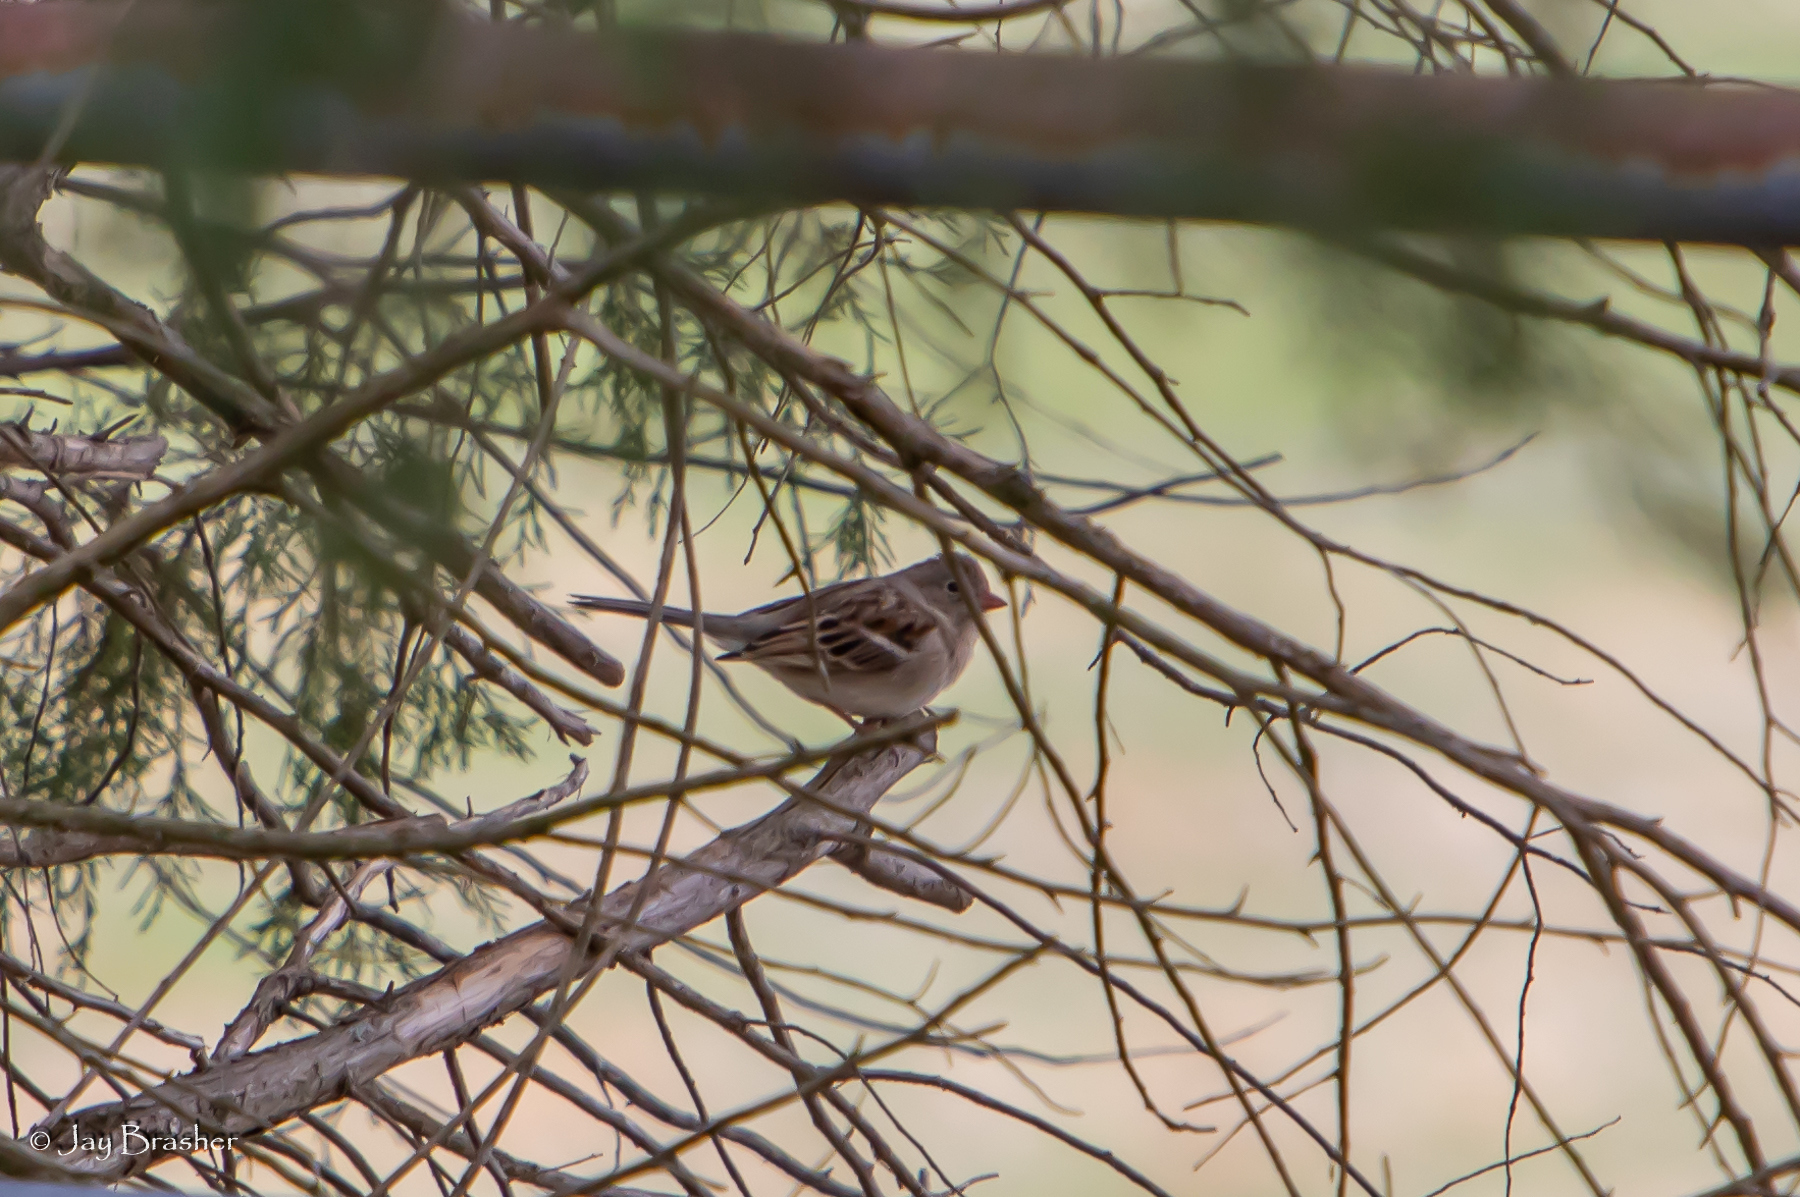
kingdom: Animalia
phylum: Chordata
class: Aves
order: Passeriformes
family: Passerellidae
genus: Spizella
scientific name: Spizella pusilla
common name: Field sparrow
